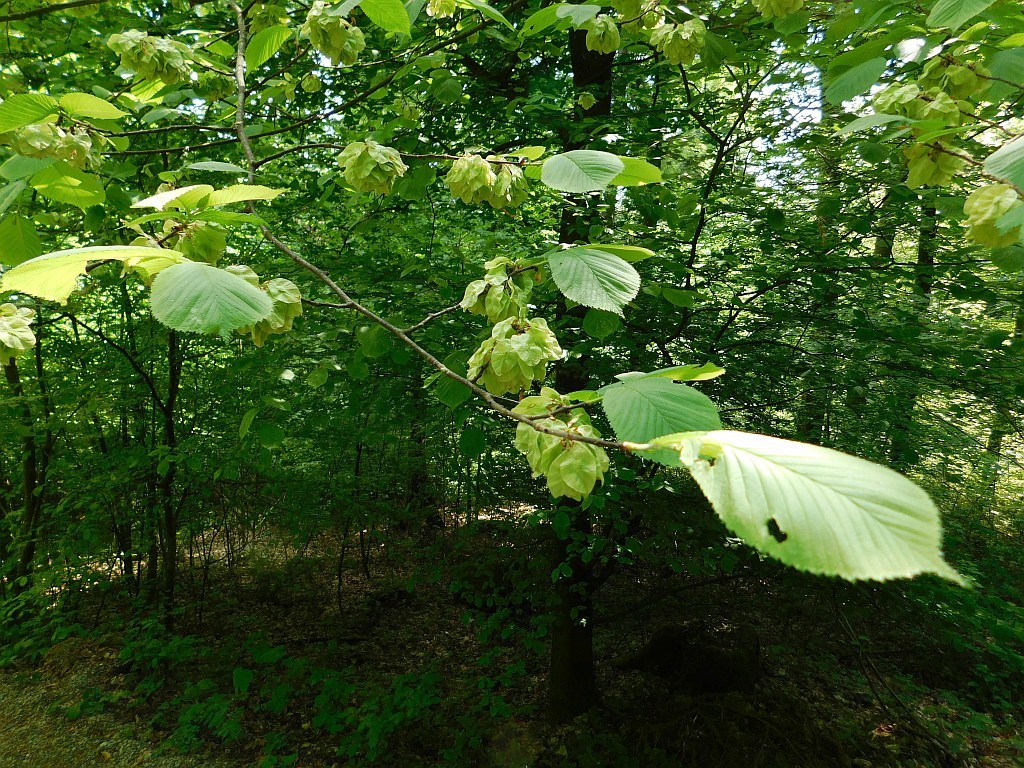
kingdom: Plantae
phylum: Tracheophyta
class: Magnoliopsida
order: Rosales
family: Ulmaceae
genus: Ulmus
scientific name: Ulmus glabra
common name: Wych elm
